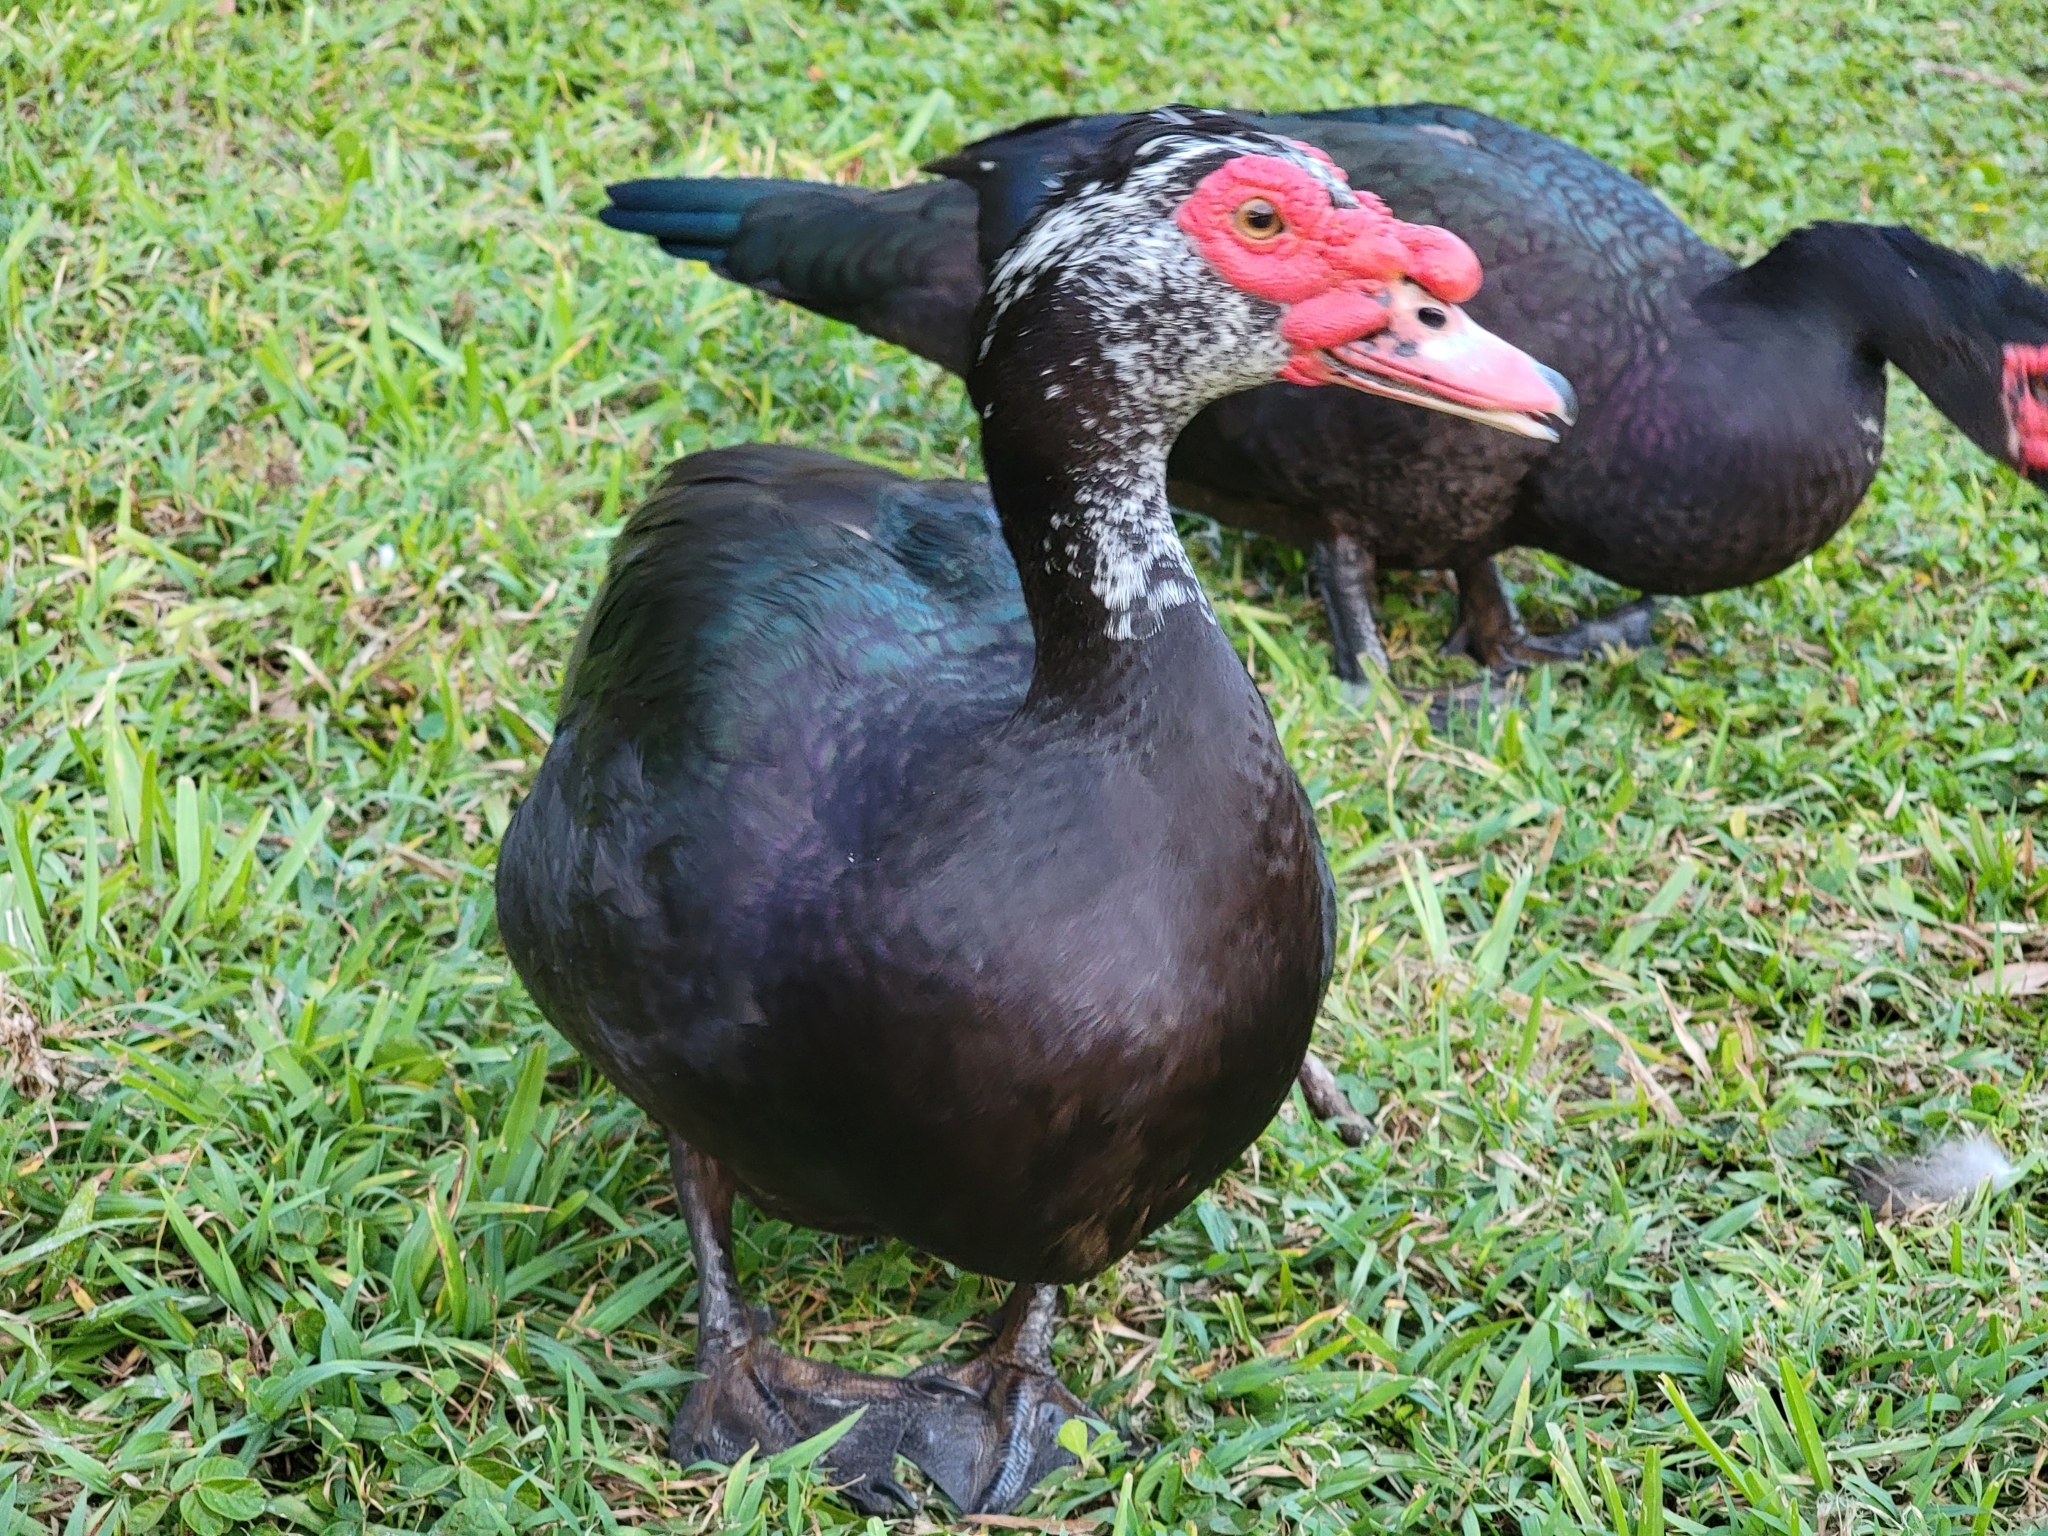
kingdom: Animalia
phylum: Chordata
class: Aves
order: Anseriformes
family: Anatidae
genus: Cairina
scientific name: Cairina moschata
